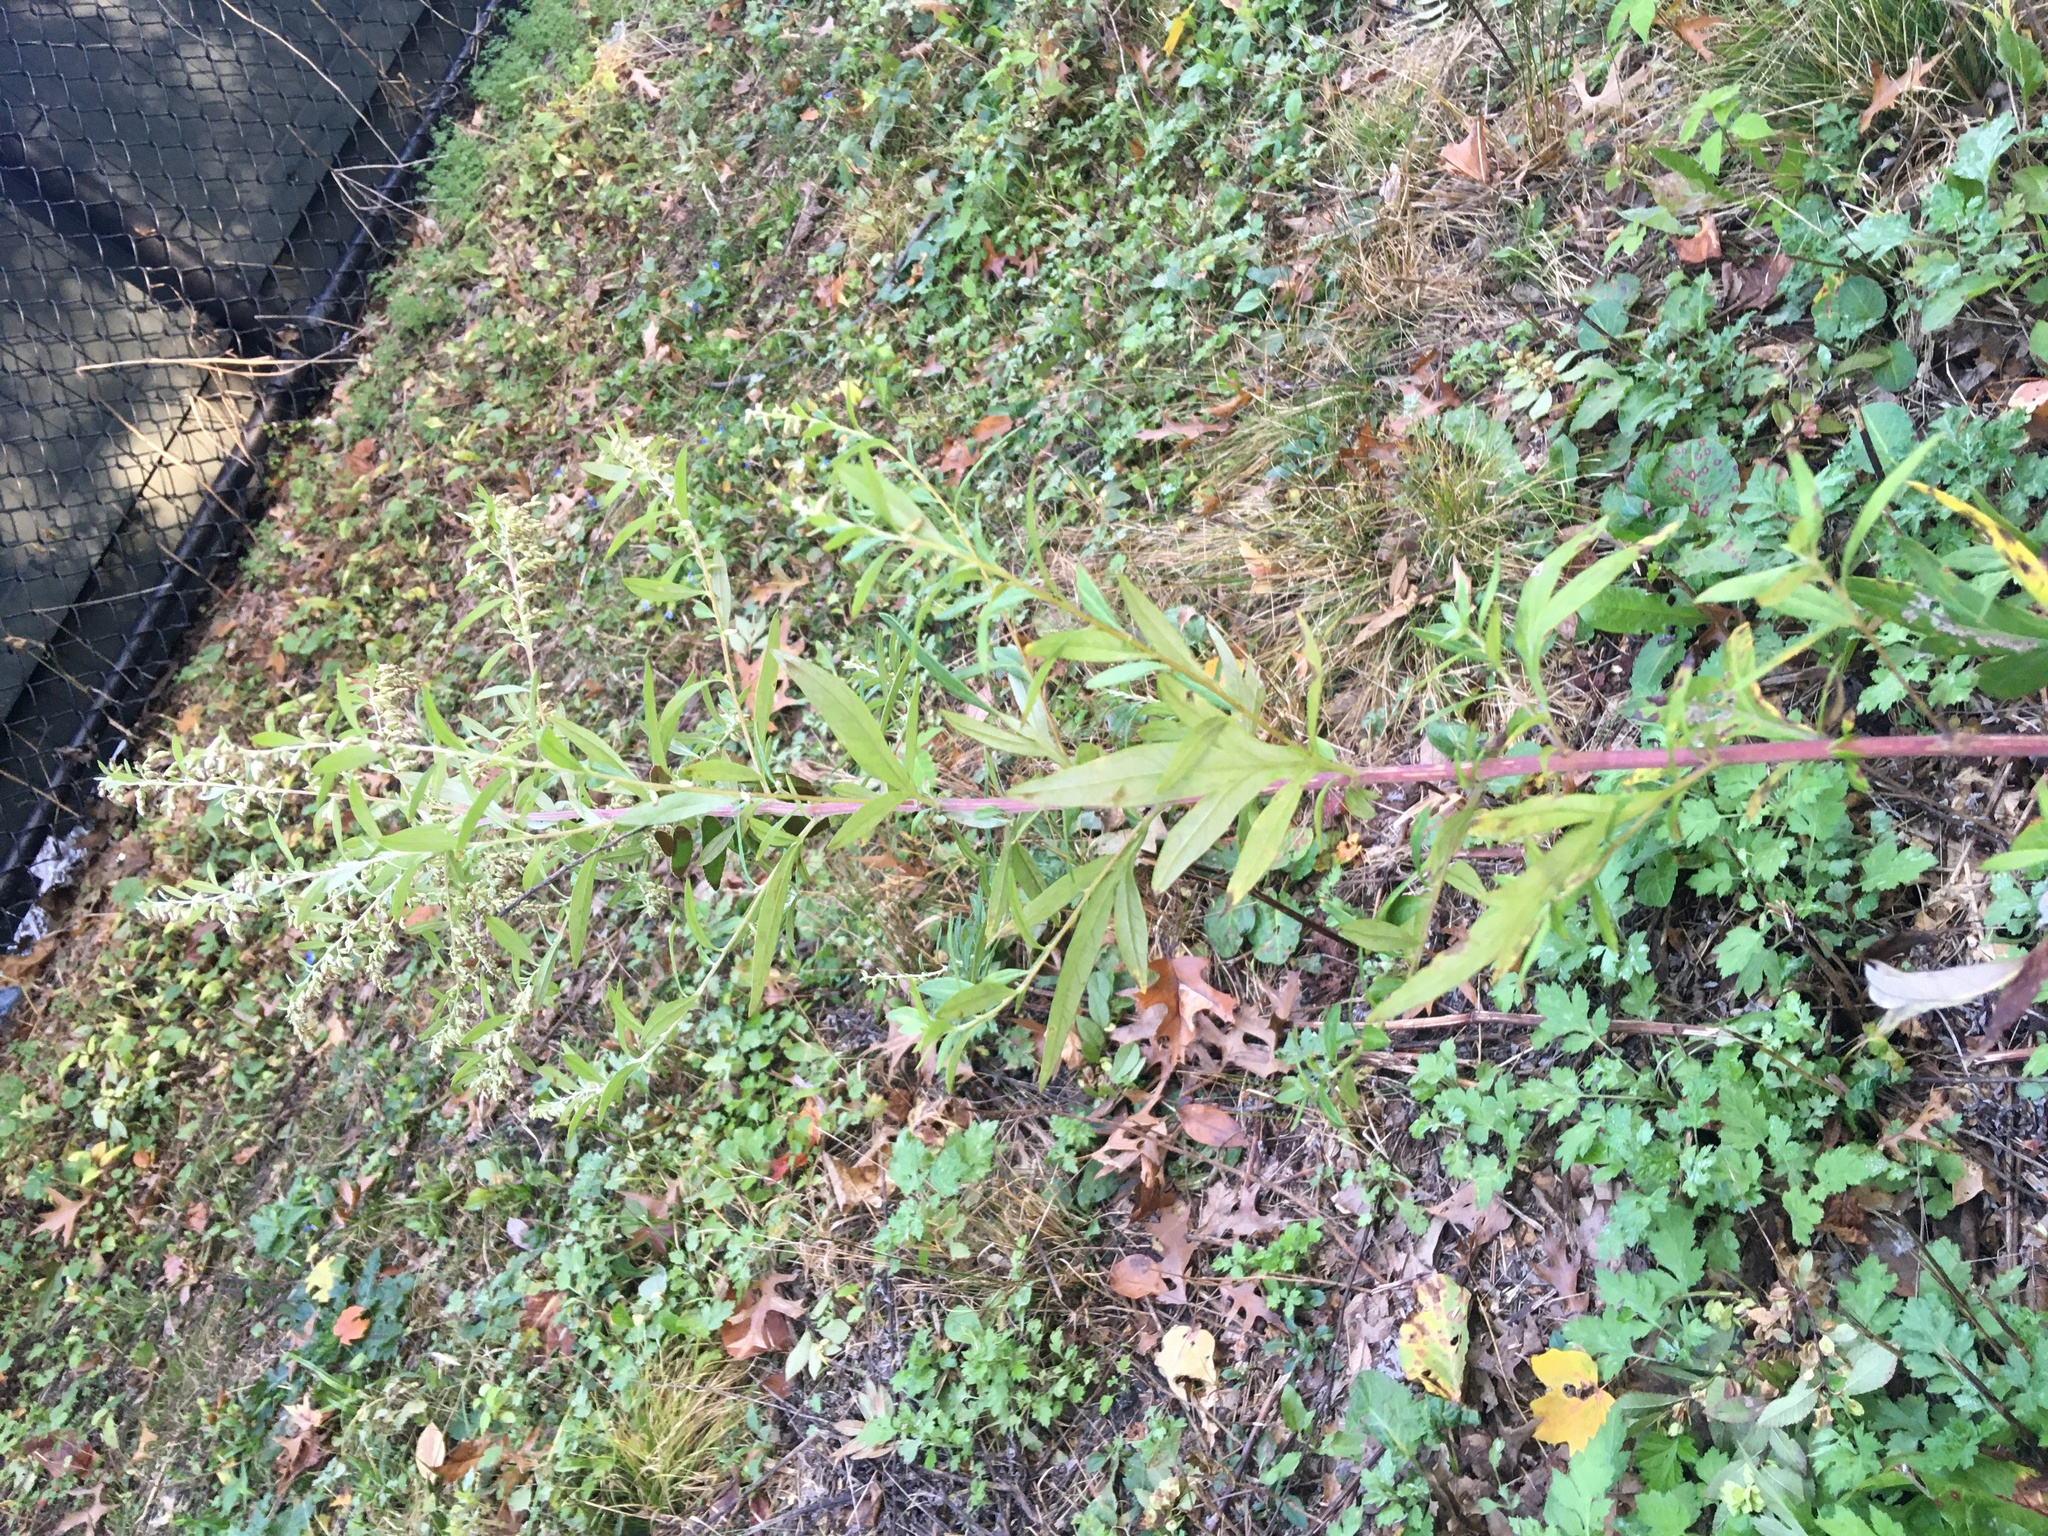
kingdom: Plantae
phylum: Tracheophyta
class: Magnoliopsida
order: Asterales
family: Asteraceae
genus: Artemisia
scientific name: Artemisia vulgaris
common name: Mugwort
